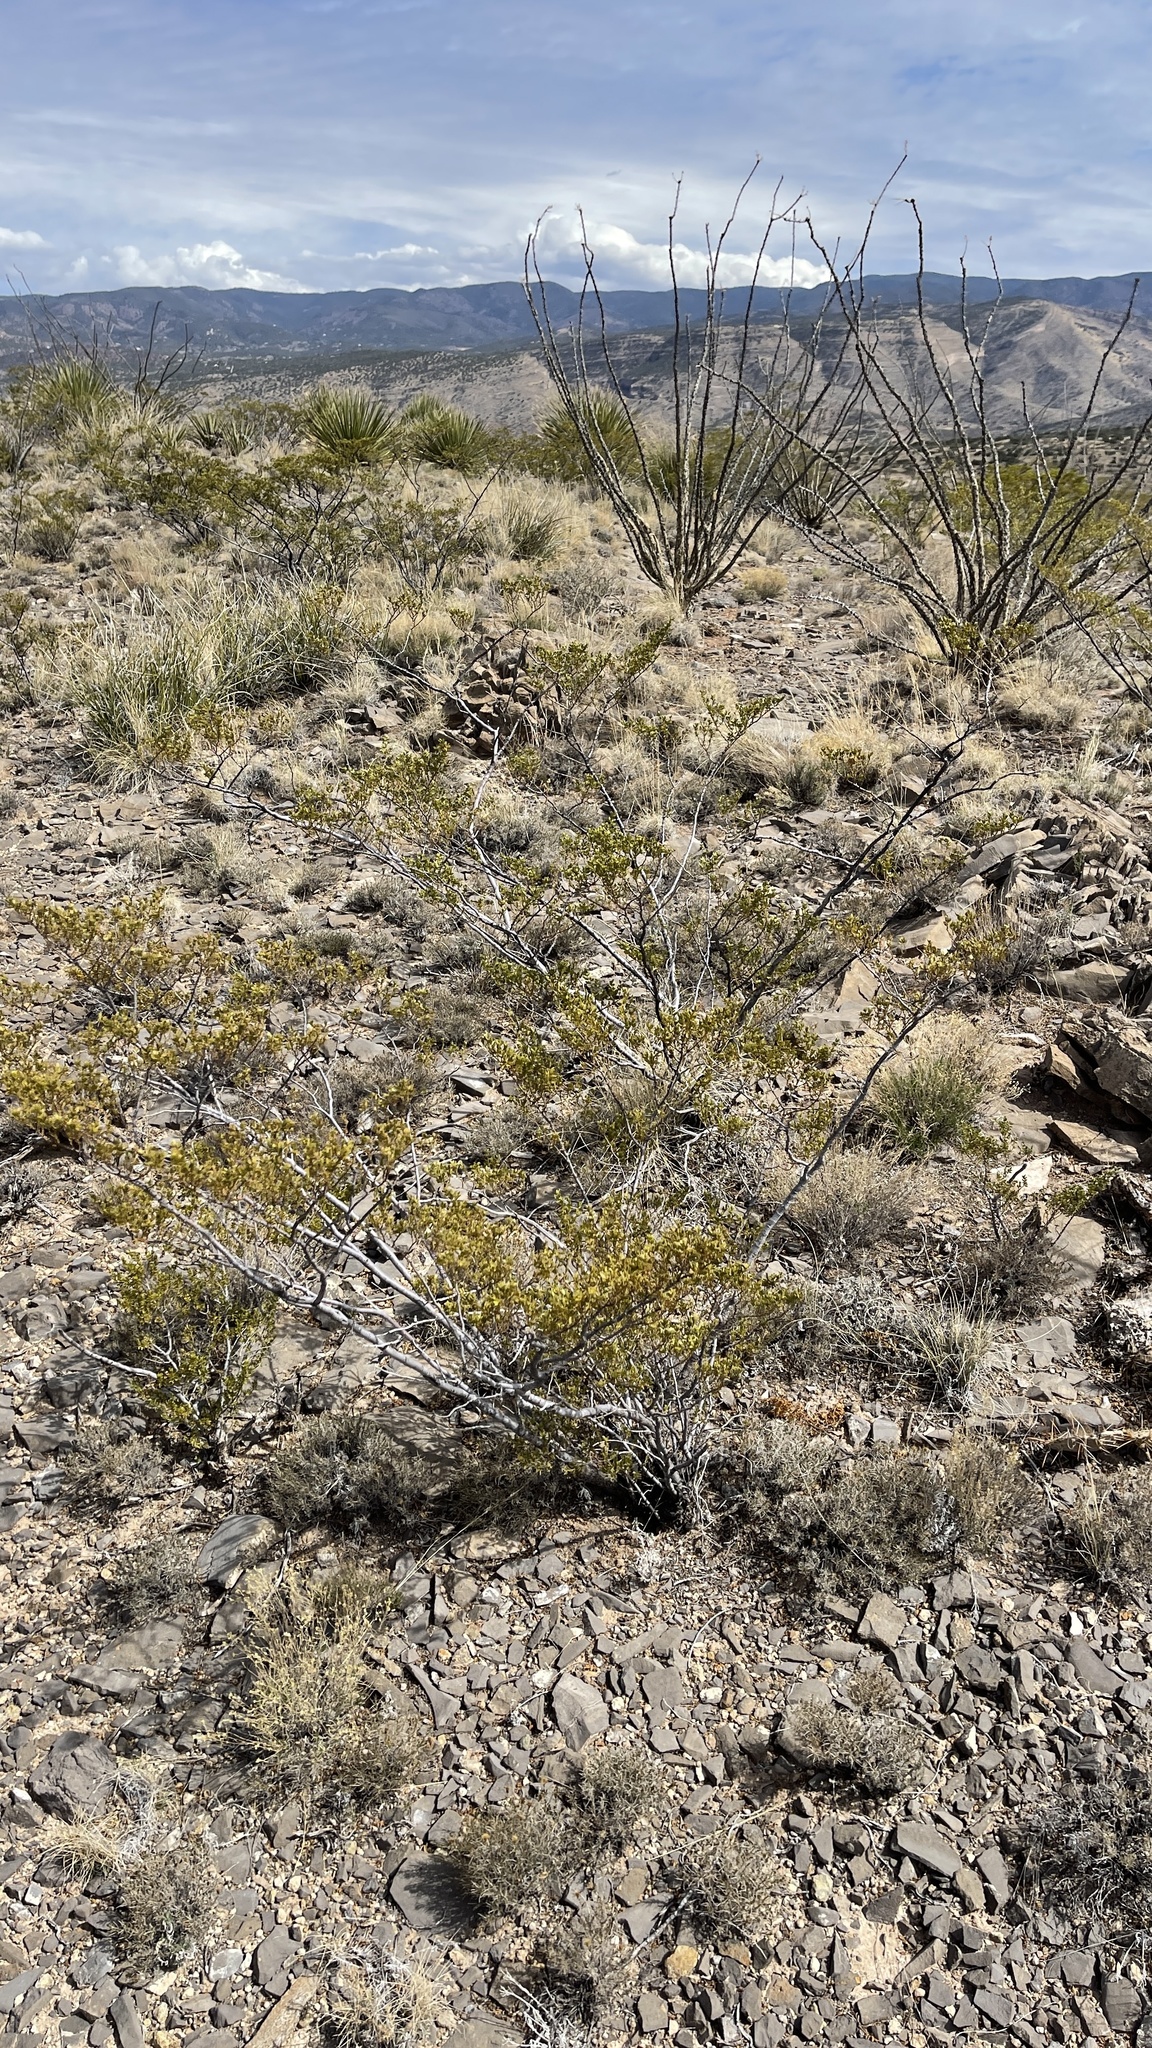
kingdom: Plantae
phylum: Tracheophyta
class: Magnoliopsida
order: Zygophyllales
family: Zygophyllaceae
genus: Larrea
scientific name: Larrea tridentata
